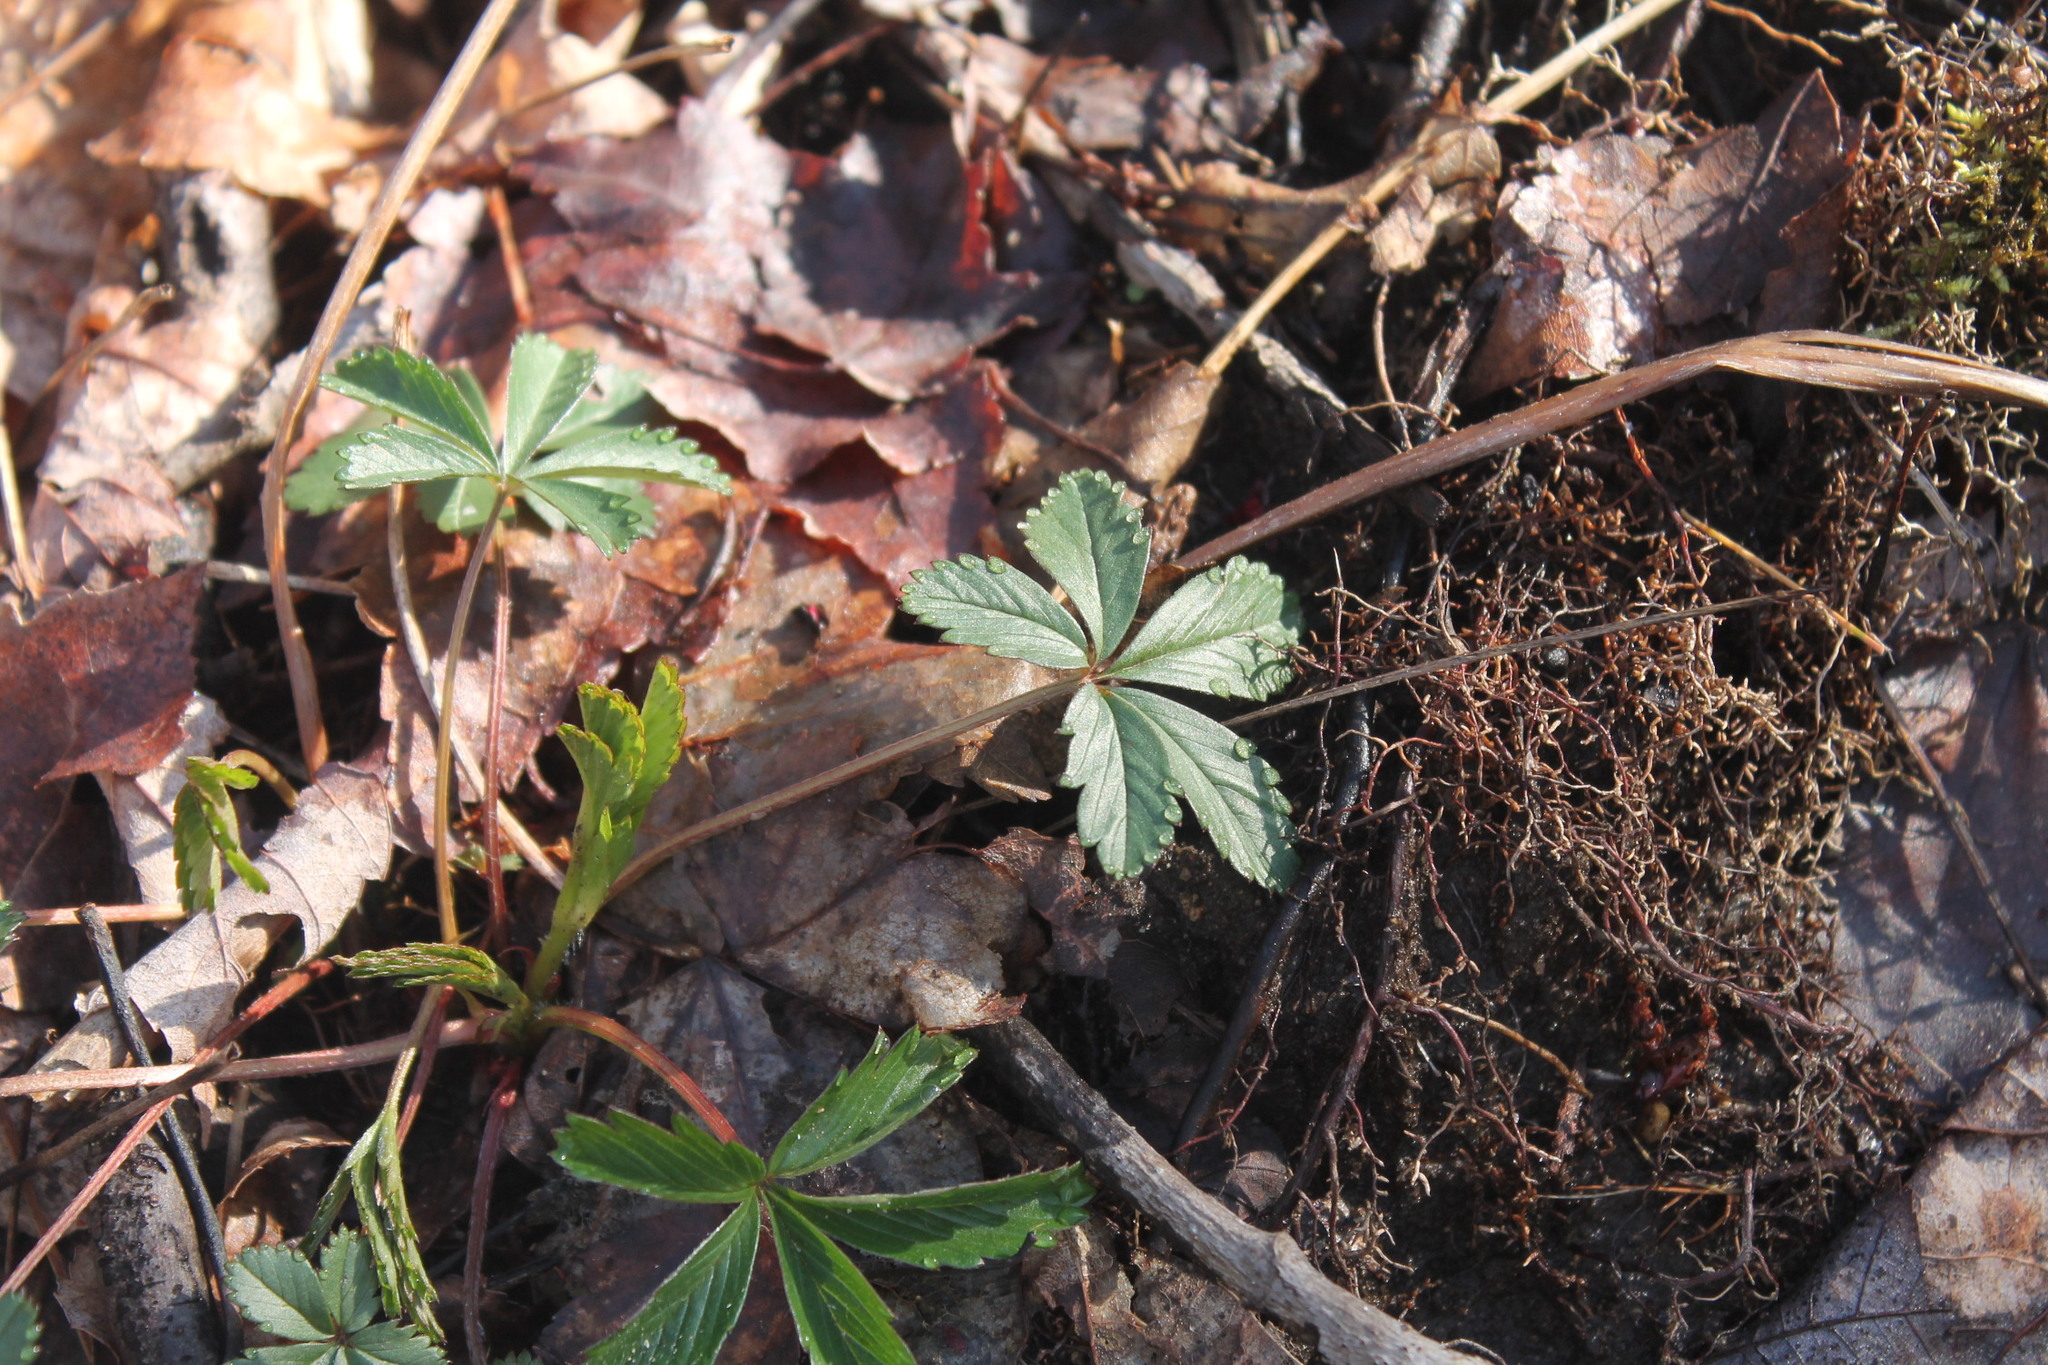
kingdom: Plantae
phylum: Tracheophyta
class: Magnoliopsida
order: Rosales
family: Rosaceae
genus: Potentilla
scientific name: Potentilla simplex
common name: Old field cinquefoil
